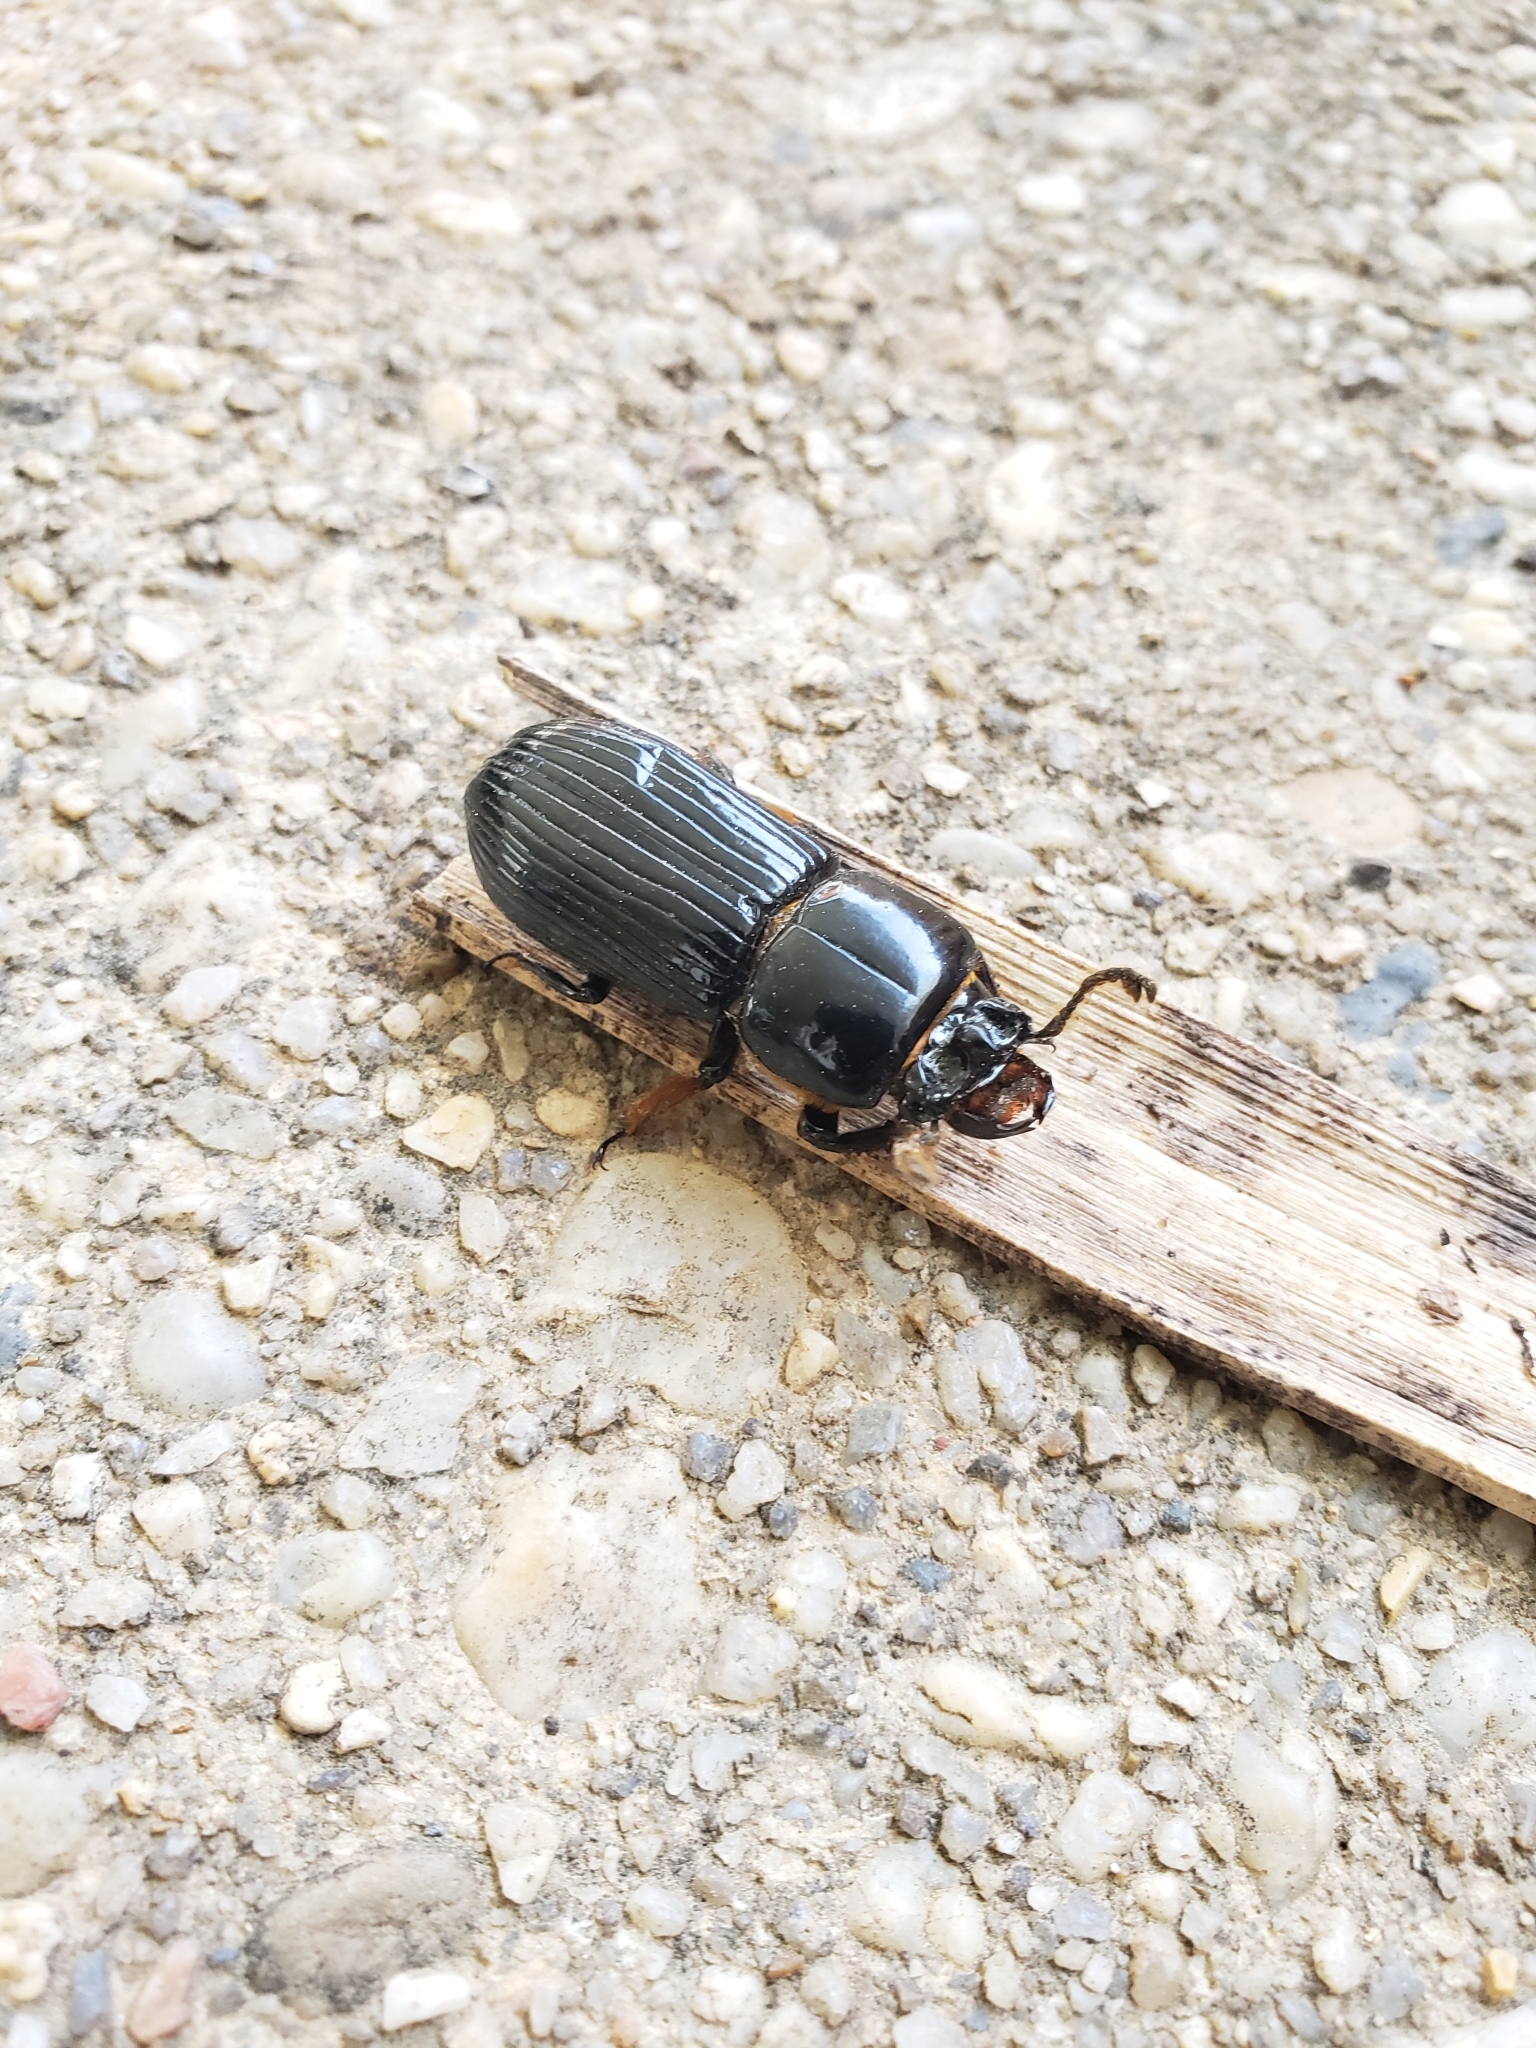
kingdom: Animalia
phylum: Arthropoda
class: Insecta
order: Coleoptera
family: Passalidae
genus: Odontotaenius
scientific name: Odontotaenius disjunctus
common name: Patent leather beetle
